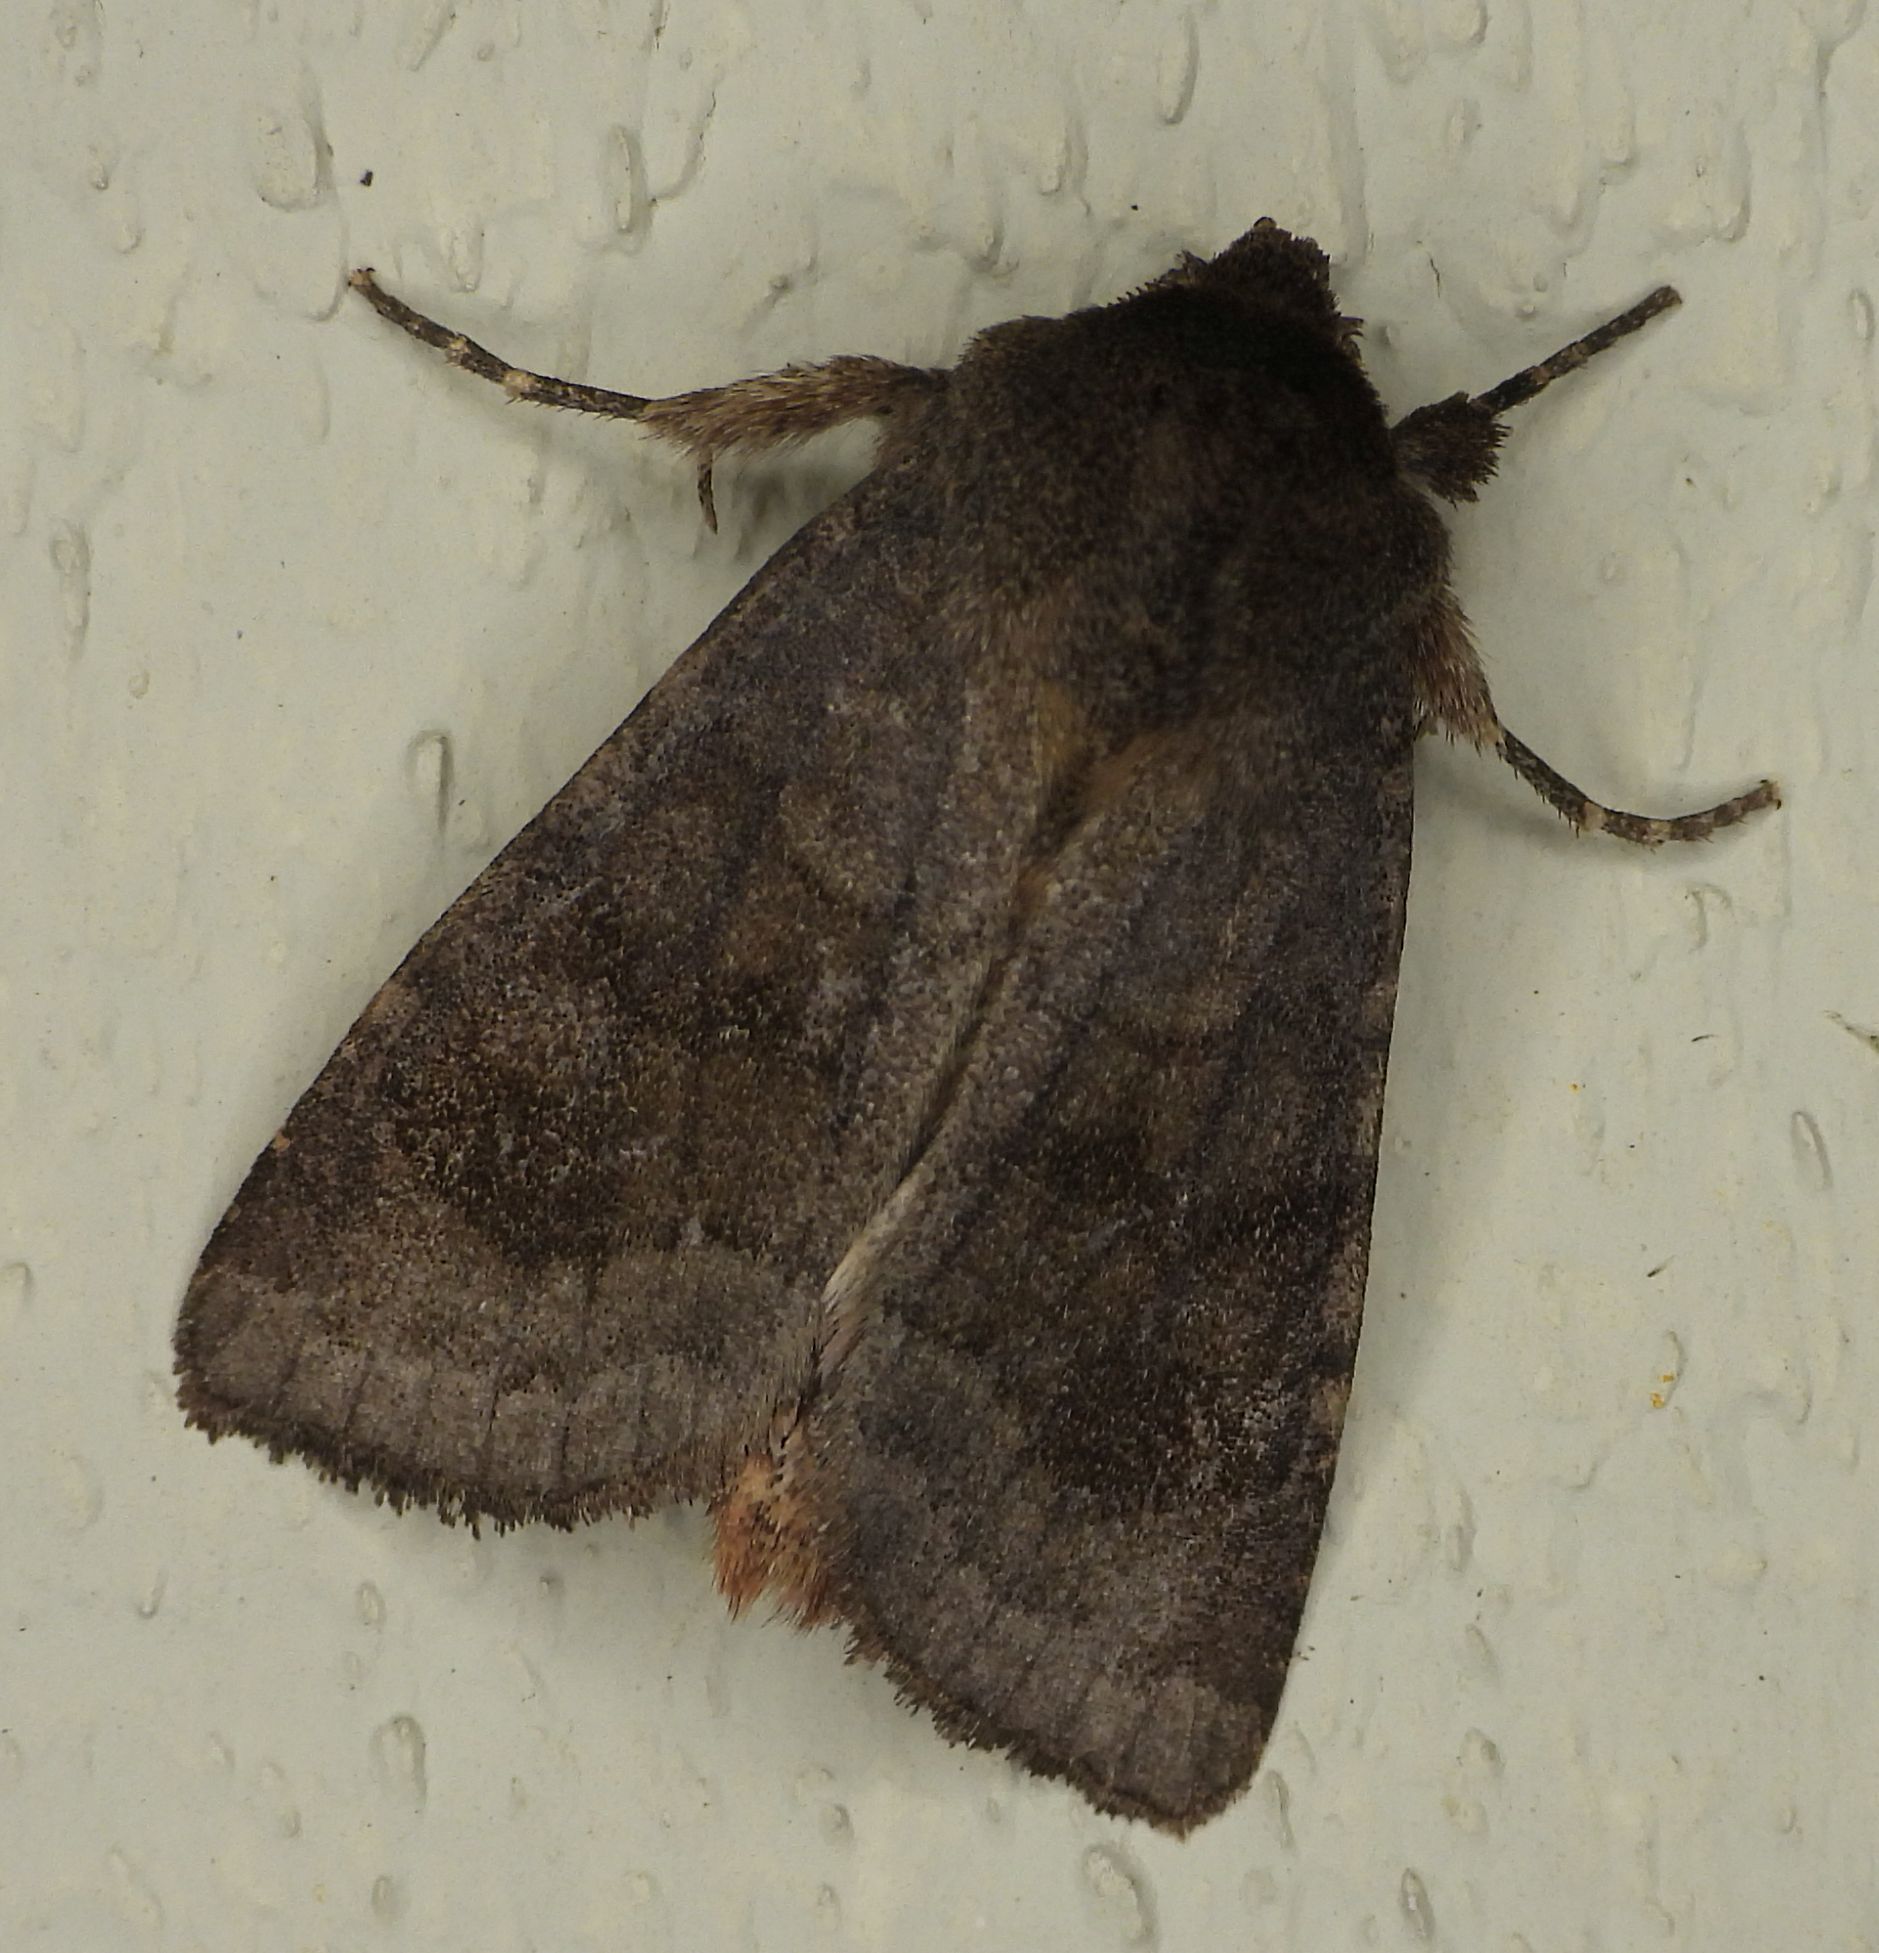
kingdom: Animalia
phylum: Arthropoda
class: Insecta
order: Lepidoptera
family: Noctuidae
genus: Nephelodes
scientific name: Nephelodes minians
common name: Bronzed cutworm
